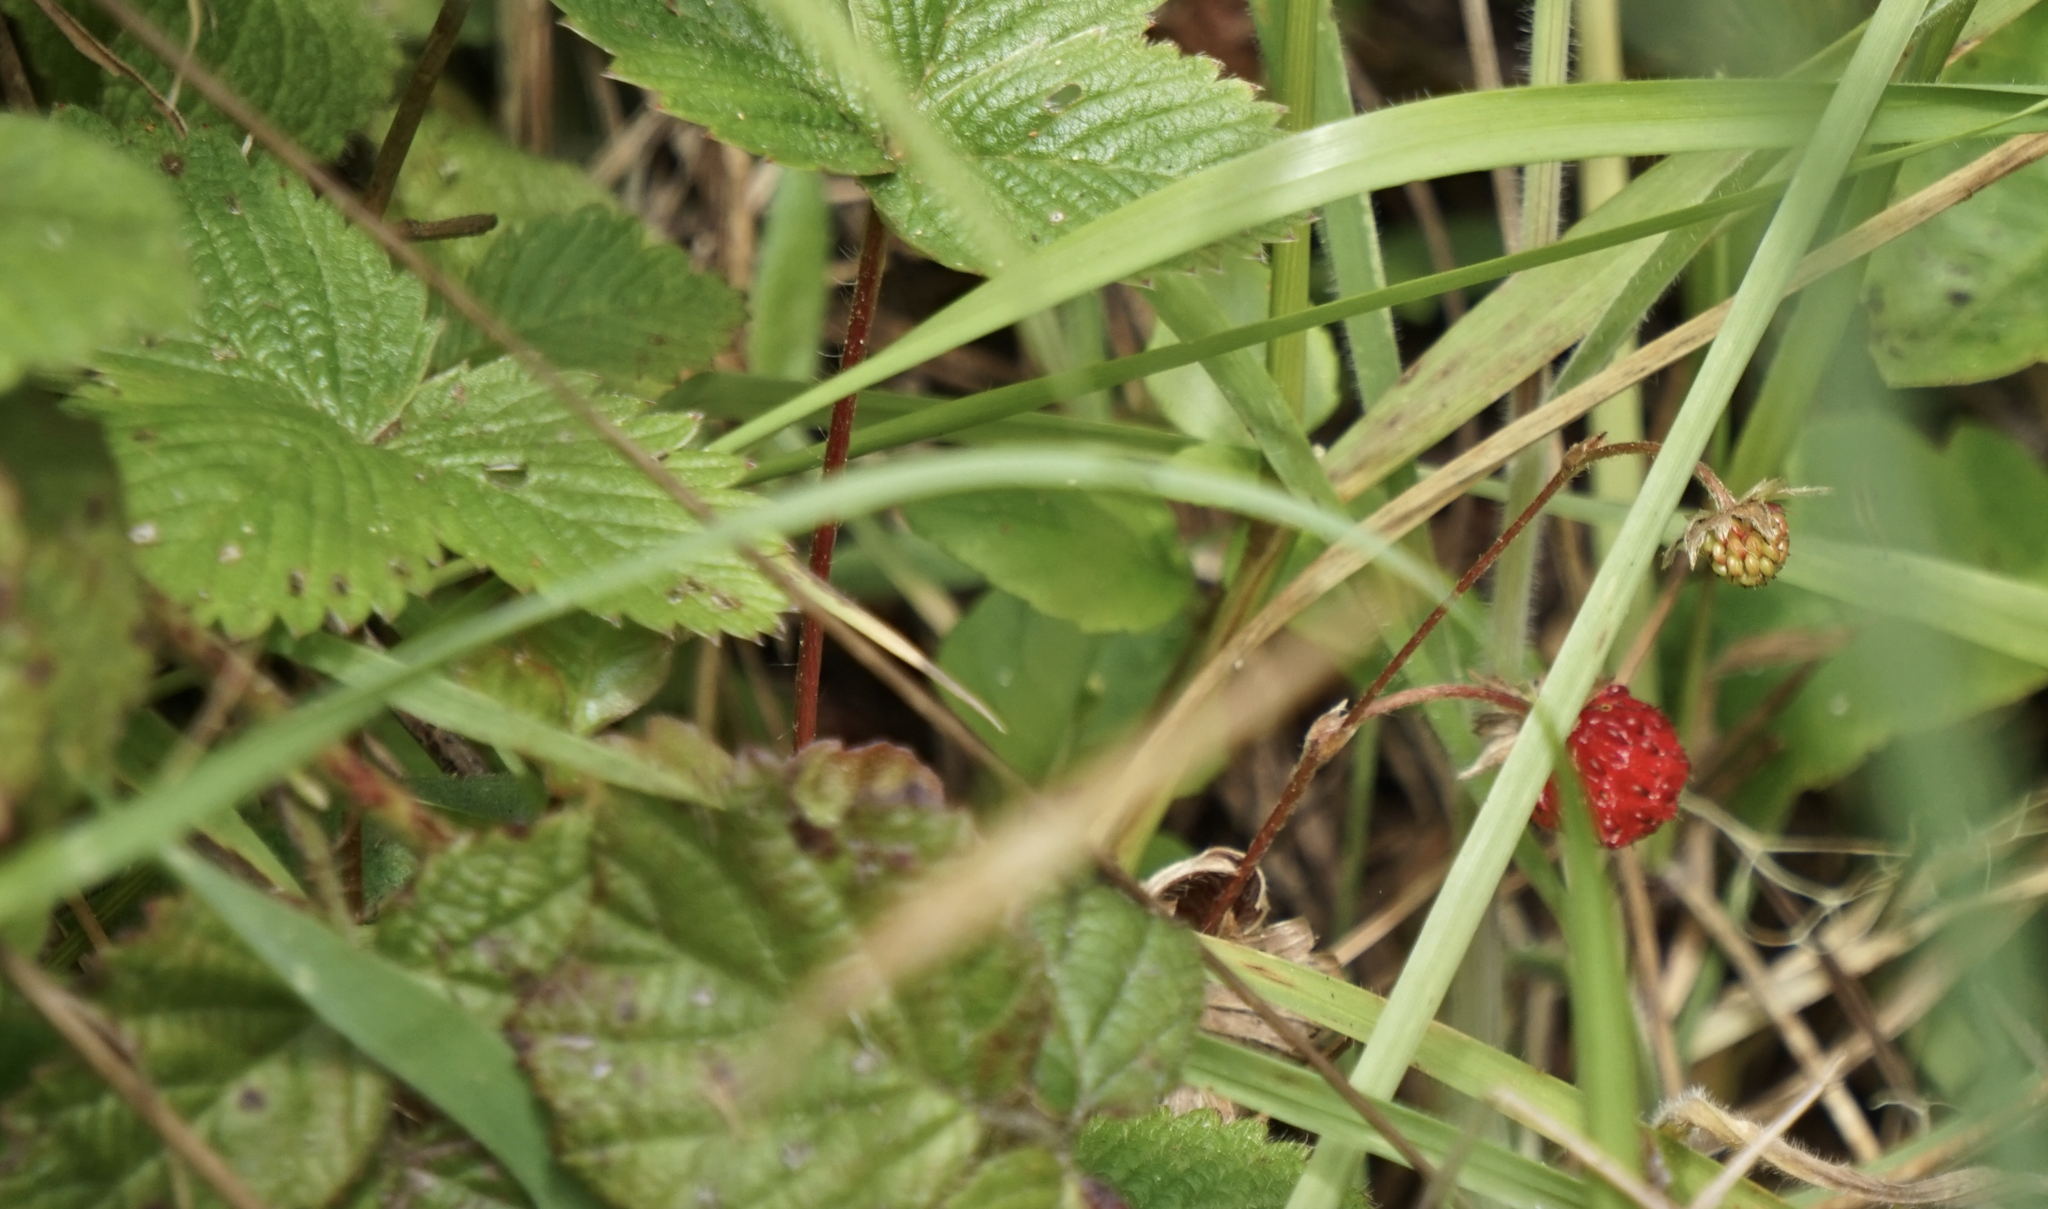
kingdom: Plantae
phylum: Tracheophyta
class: Magnoliopsida
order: Rosales
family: Rosaceae
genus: Fragaria
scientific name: Fragaria vesca
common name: Wild strawberry
